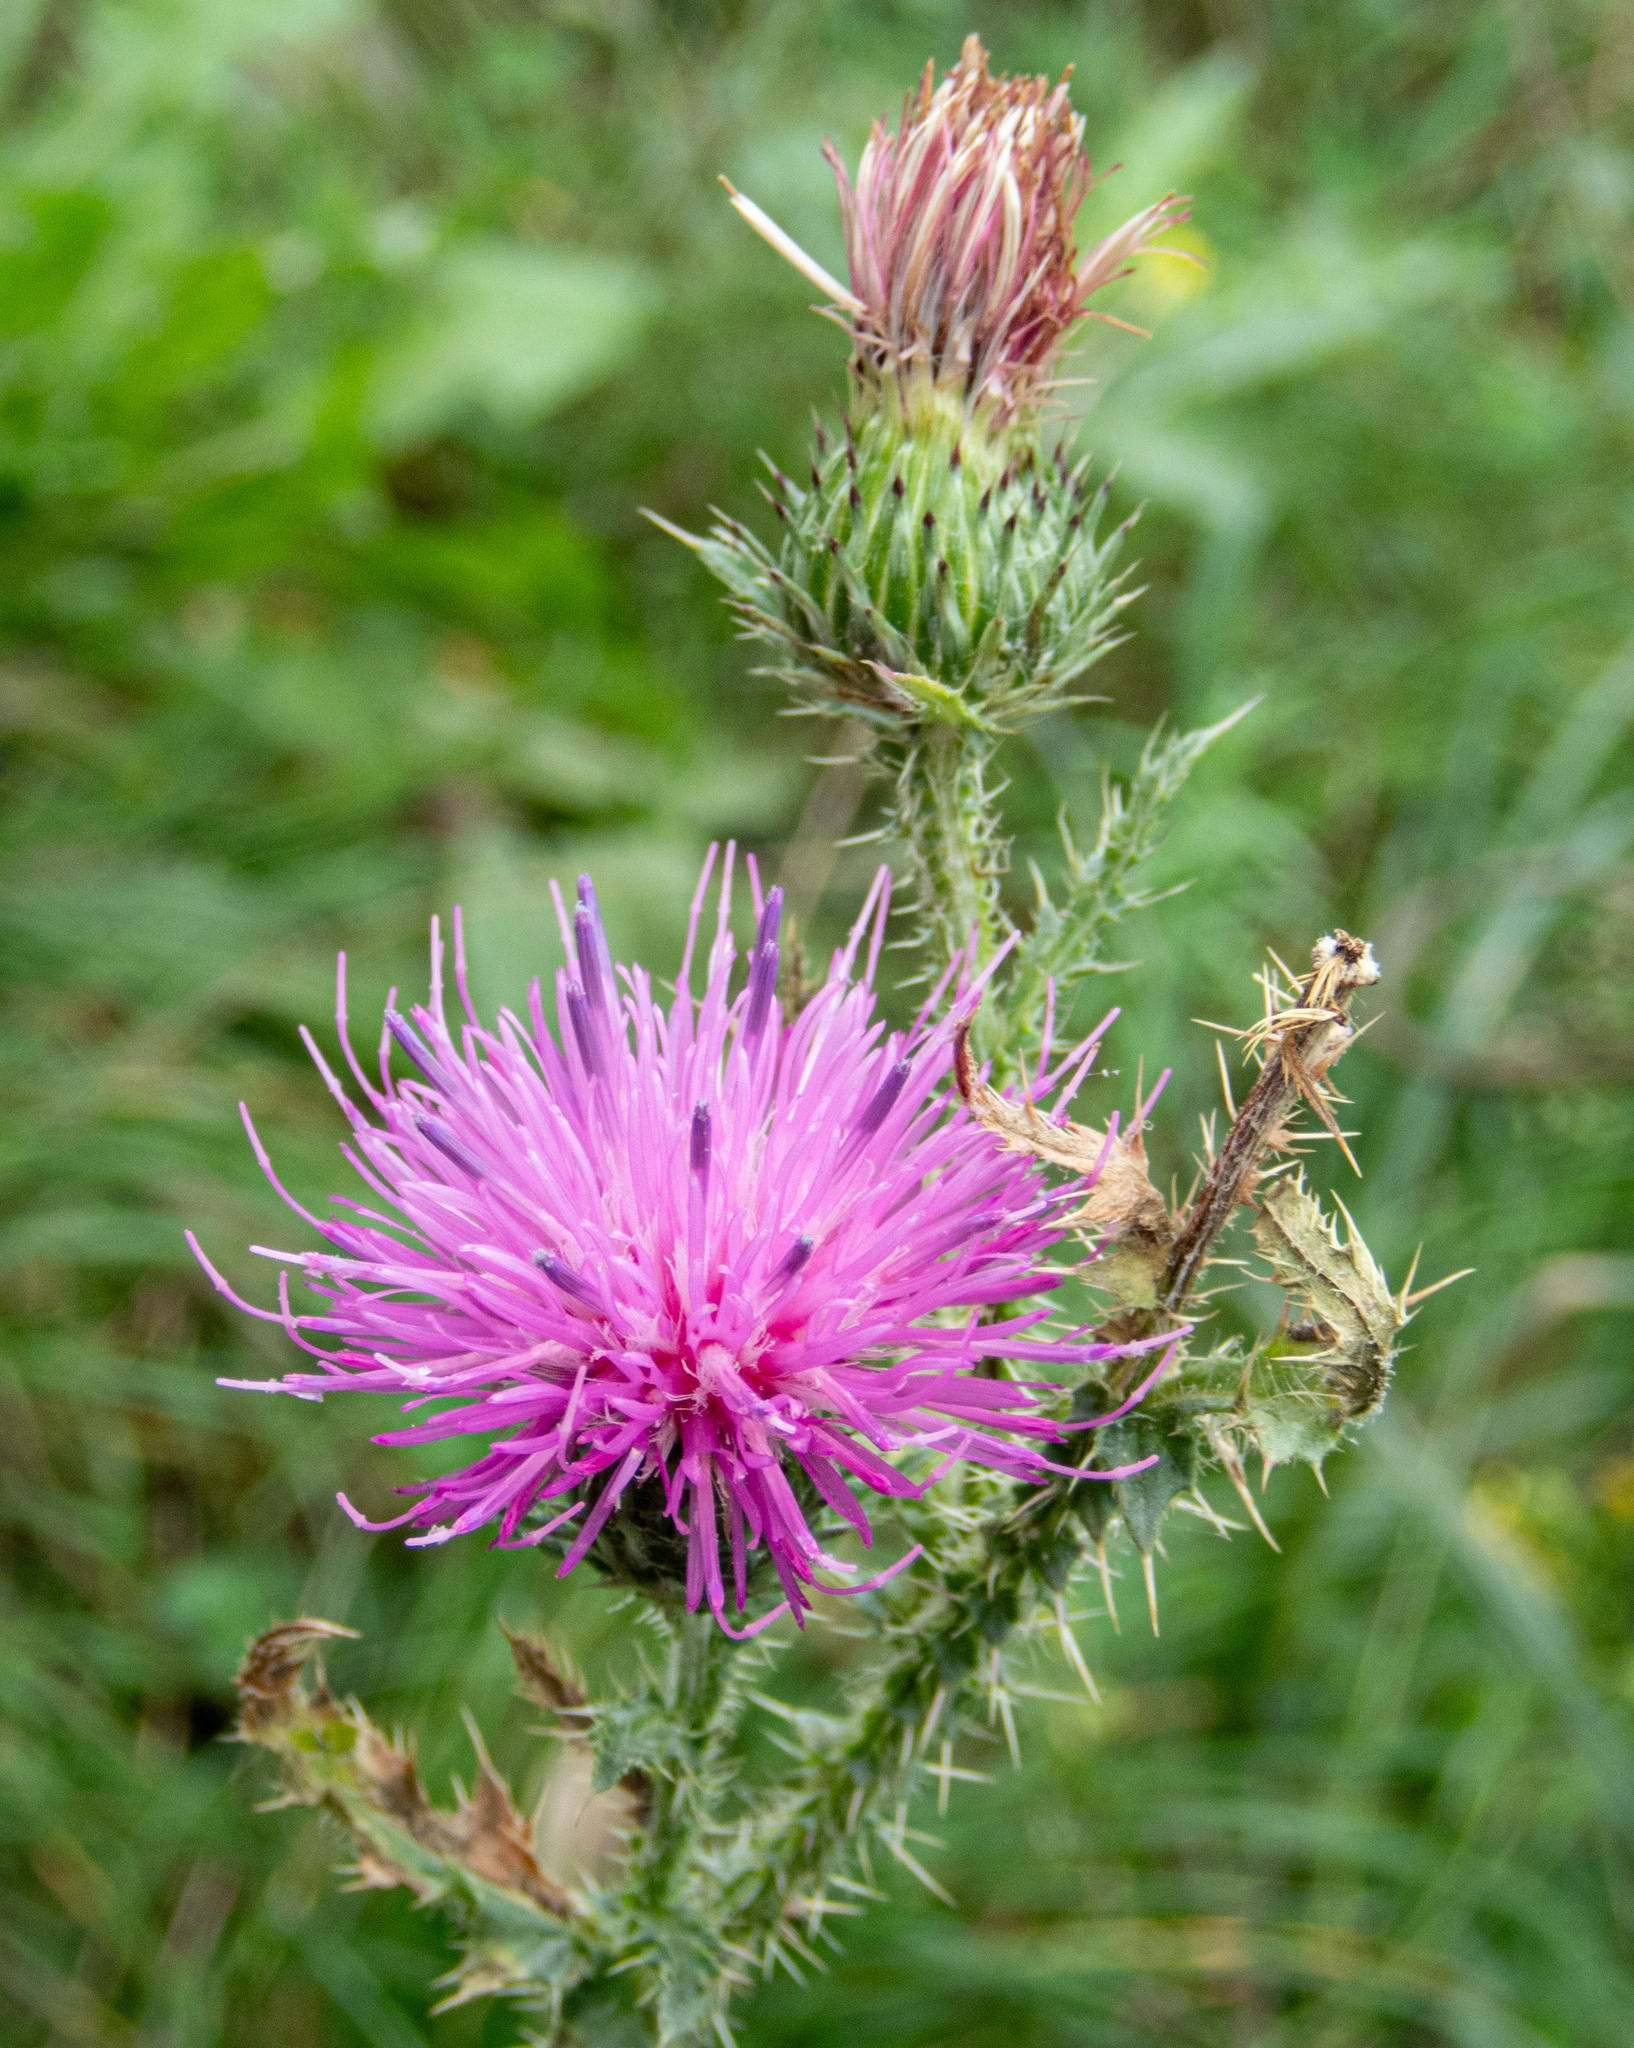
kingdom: Plantae
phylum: Tracheophyta
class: Magnoliopsida
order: Asterales
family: Asteraceae
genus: Carduus
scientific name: Carduus acanthoides
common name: Plumeless thistle
